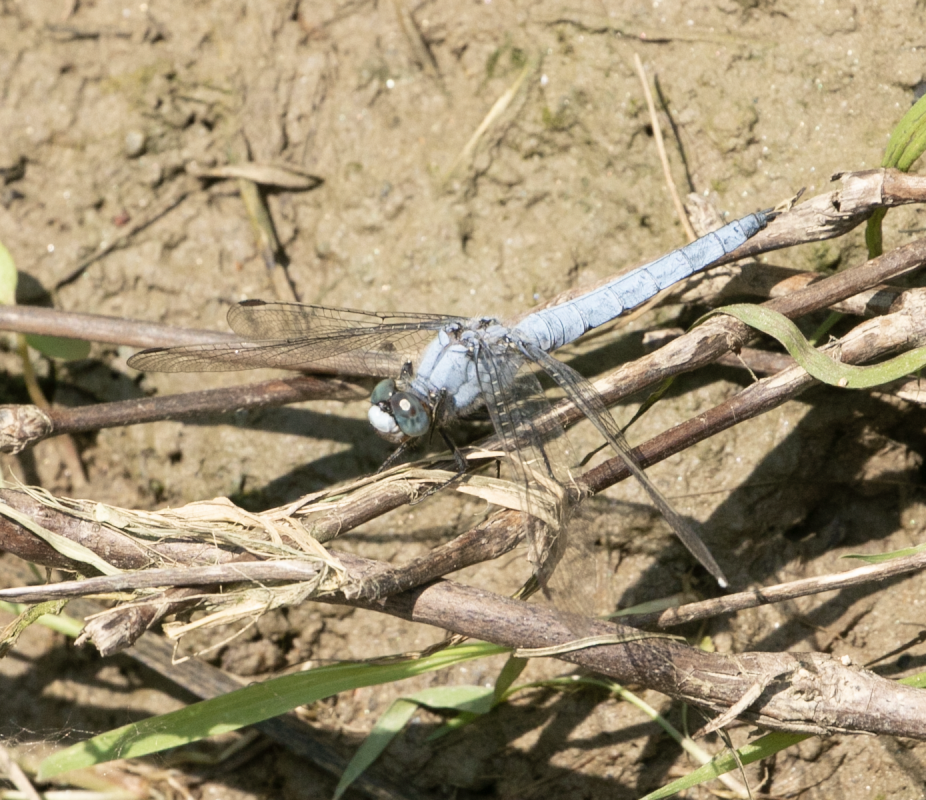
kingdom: Animalia
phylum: Arthropoda
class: Insecta
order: Odonata
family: Libellulidae
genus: Orthetrum
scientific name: Orthetrum brunneum
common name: Southern skimmer
